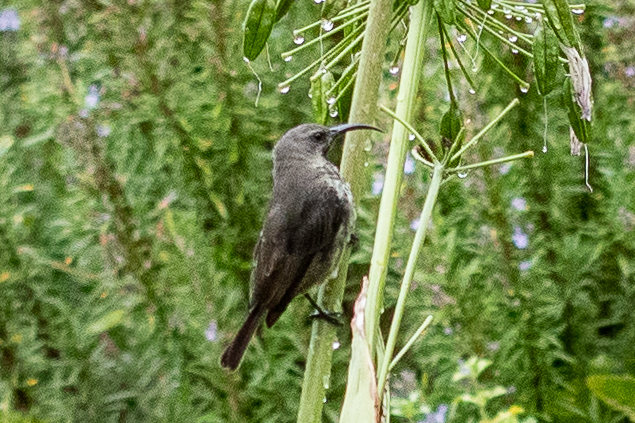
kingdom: Animalia
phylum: Chordata
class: Aves
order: Passeriformes
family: Nectariniidae
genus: Chalcomitra
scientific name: Chalcomitra amethystina
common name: Amethyst sunbird
